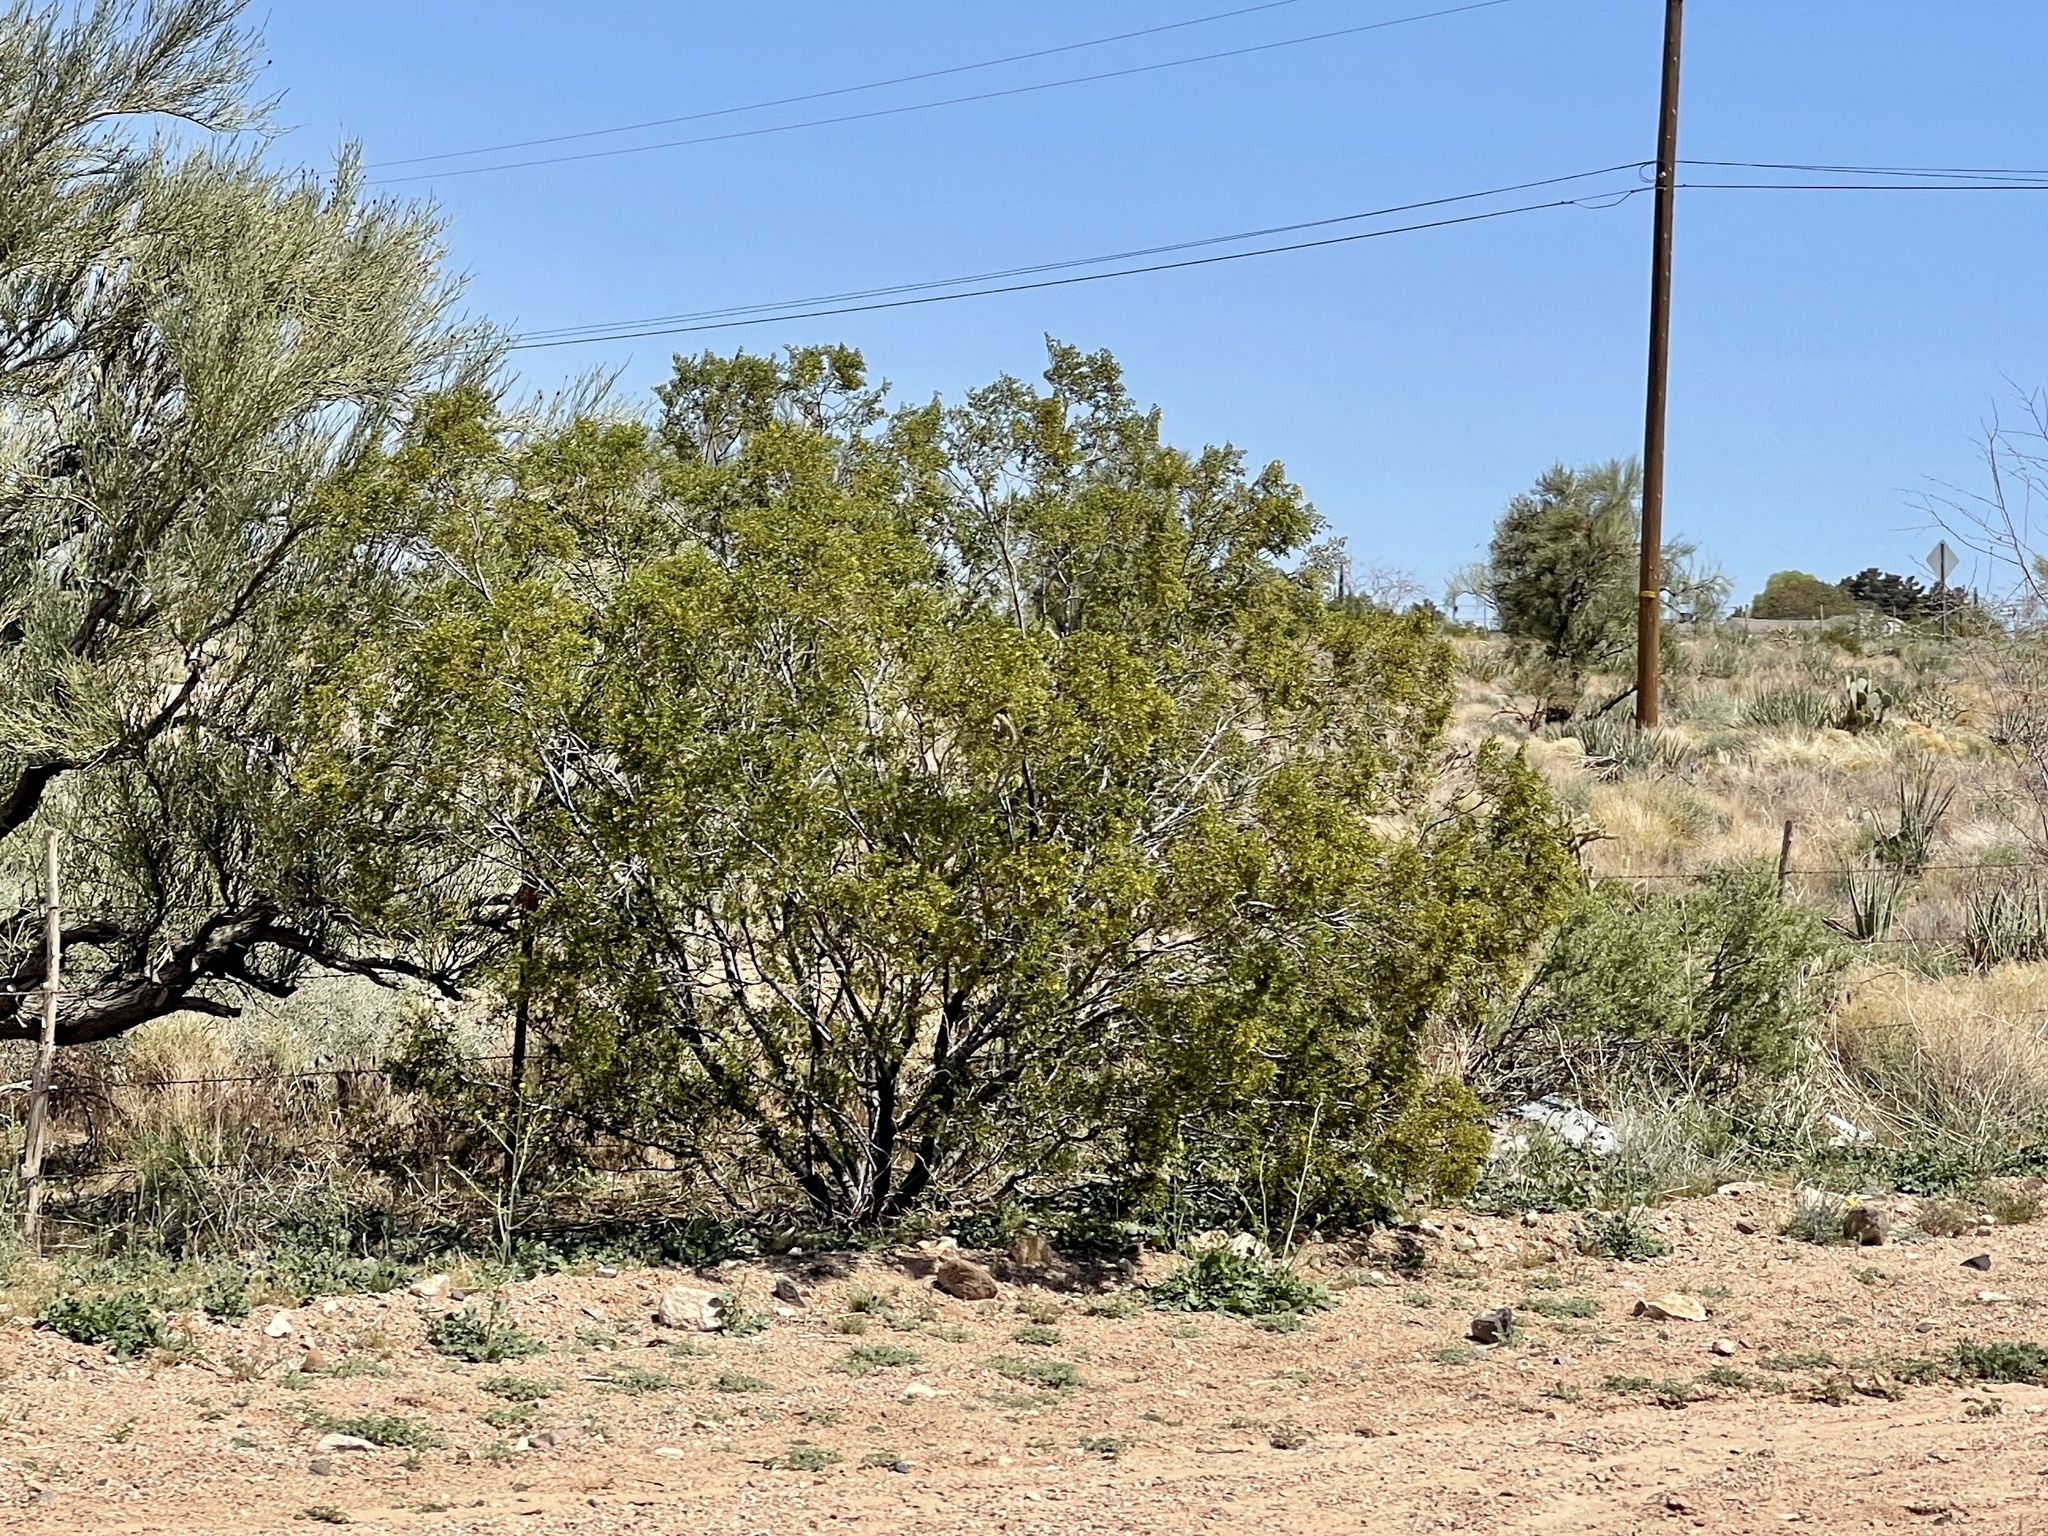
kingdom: Plantae
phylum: Tracheophyta
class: Magnoliopsida
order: Zygophyllales
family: Zygophyllaceae
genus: Larrea
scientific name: Larrea tridentata
